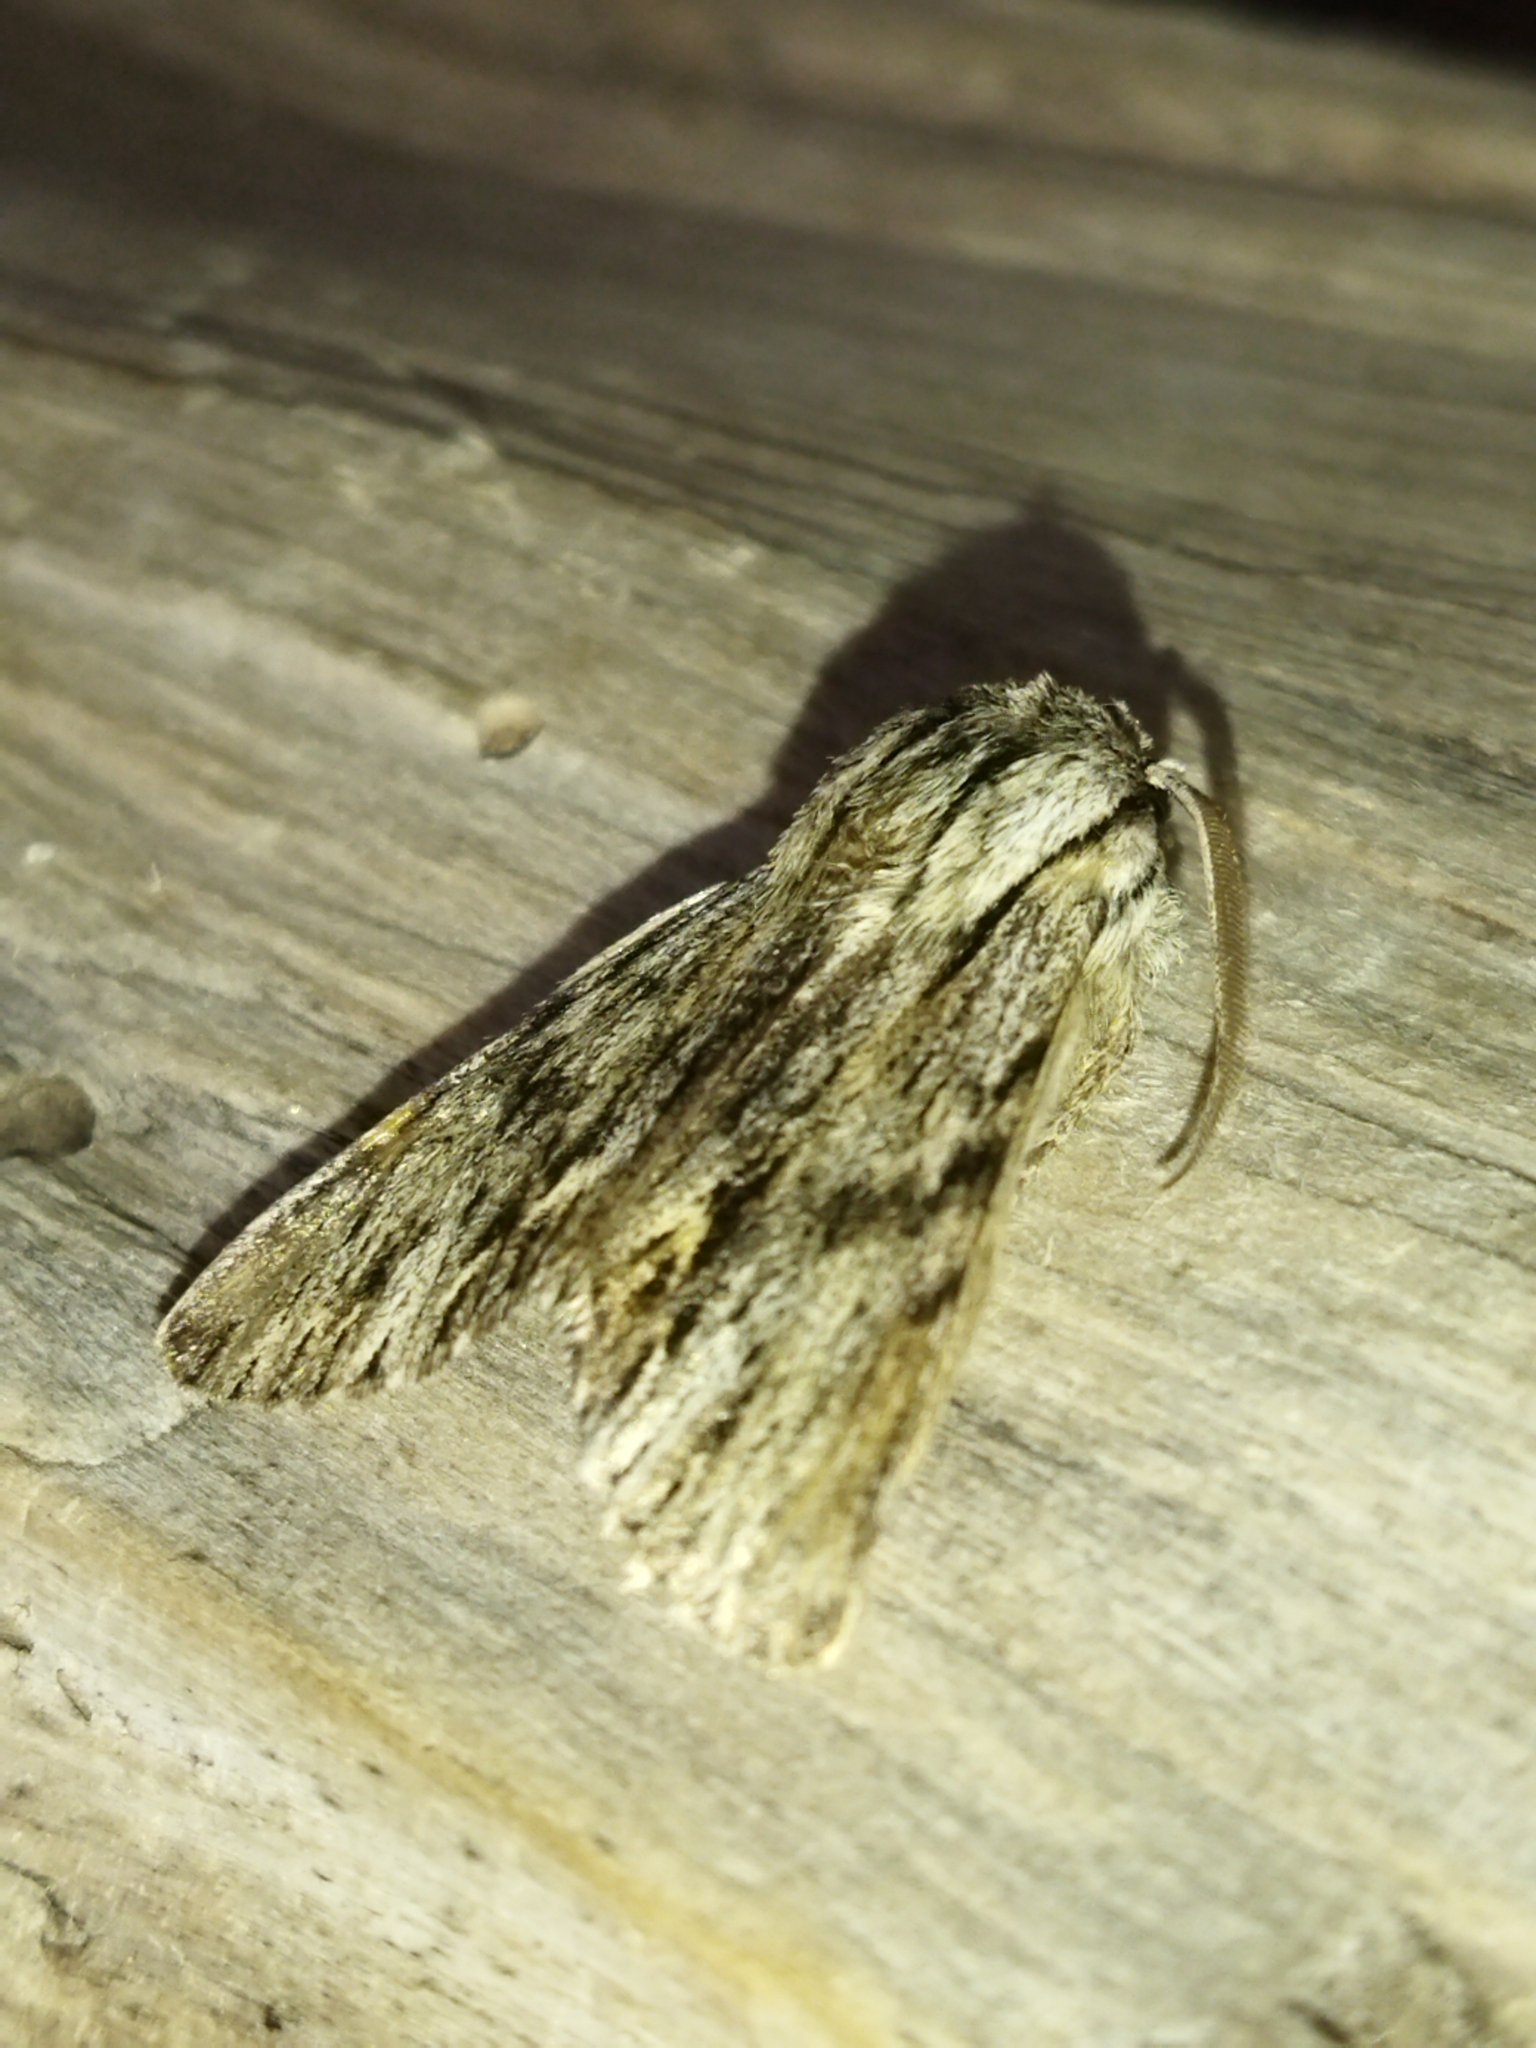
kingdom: Animalia
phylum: Arthropoda
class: Insecta
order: Lepidoptera
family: Noctuidae
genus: Asteroscopus
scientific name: Asteroscopus sphinx
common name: The sprawler
